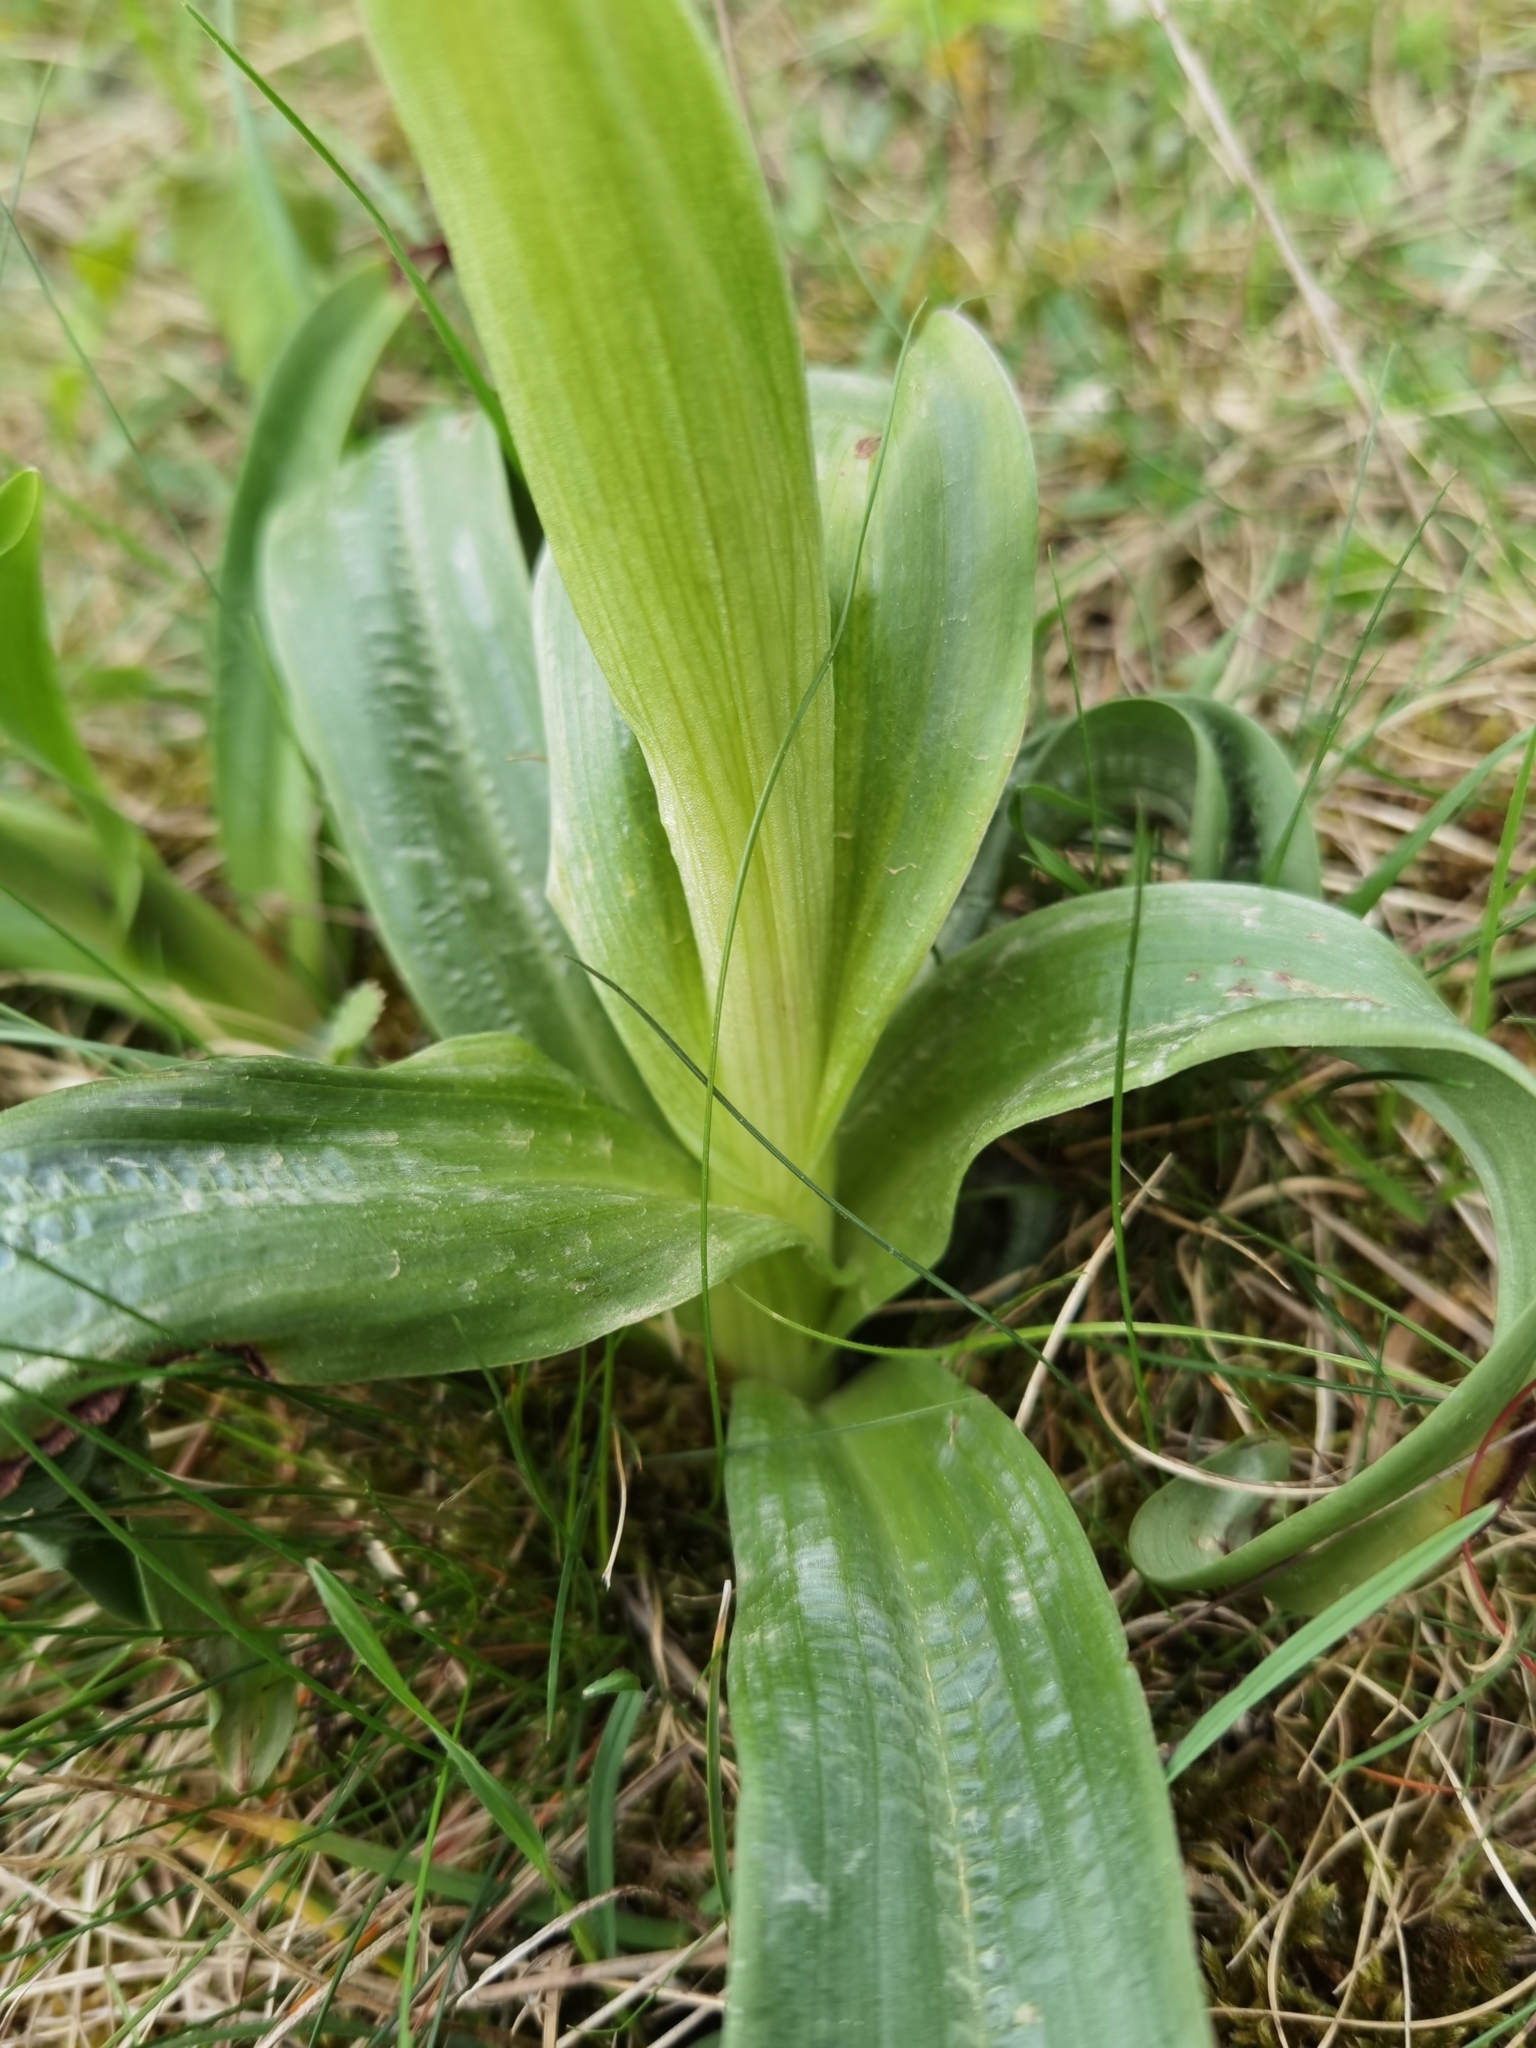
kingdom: Plantae
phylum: Tracheophyta
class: Liliopsida
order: Asparagales
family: Orchidaceae
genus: Orchis
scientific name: Orchis mascula
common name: Early-purple orchid
